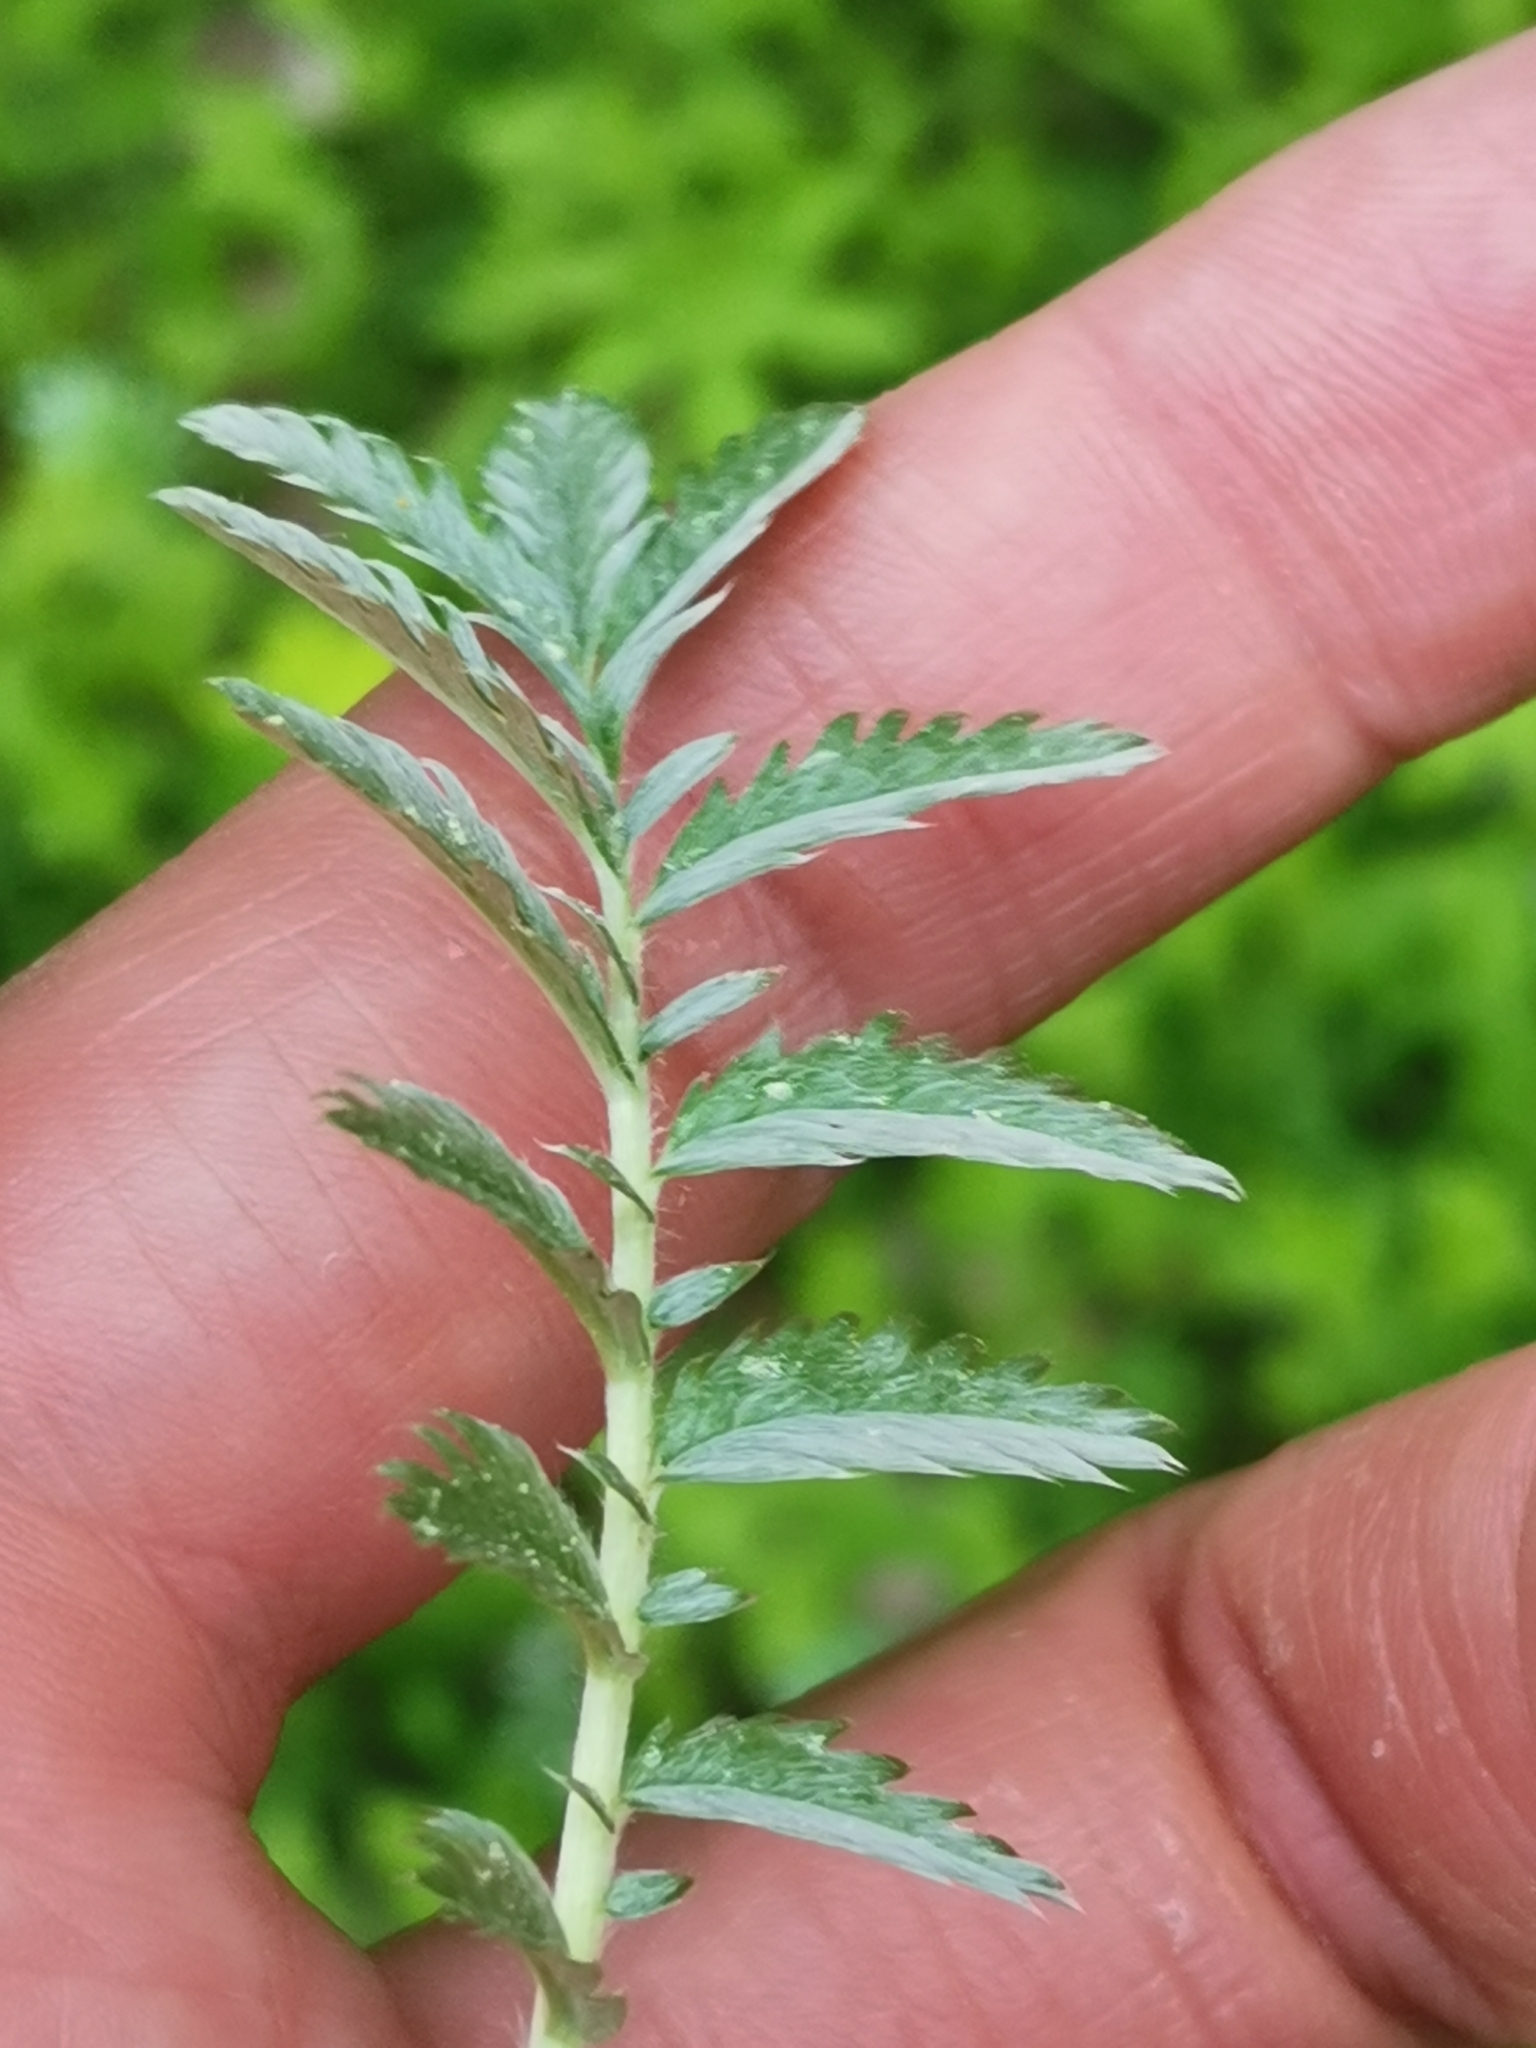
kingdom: Plantae
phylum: Tracheophyta
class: Magnoliopsida
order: Rosales
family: Rosaceae
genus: Argentina
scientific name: Argentina anserina
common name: Common silverweed
